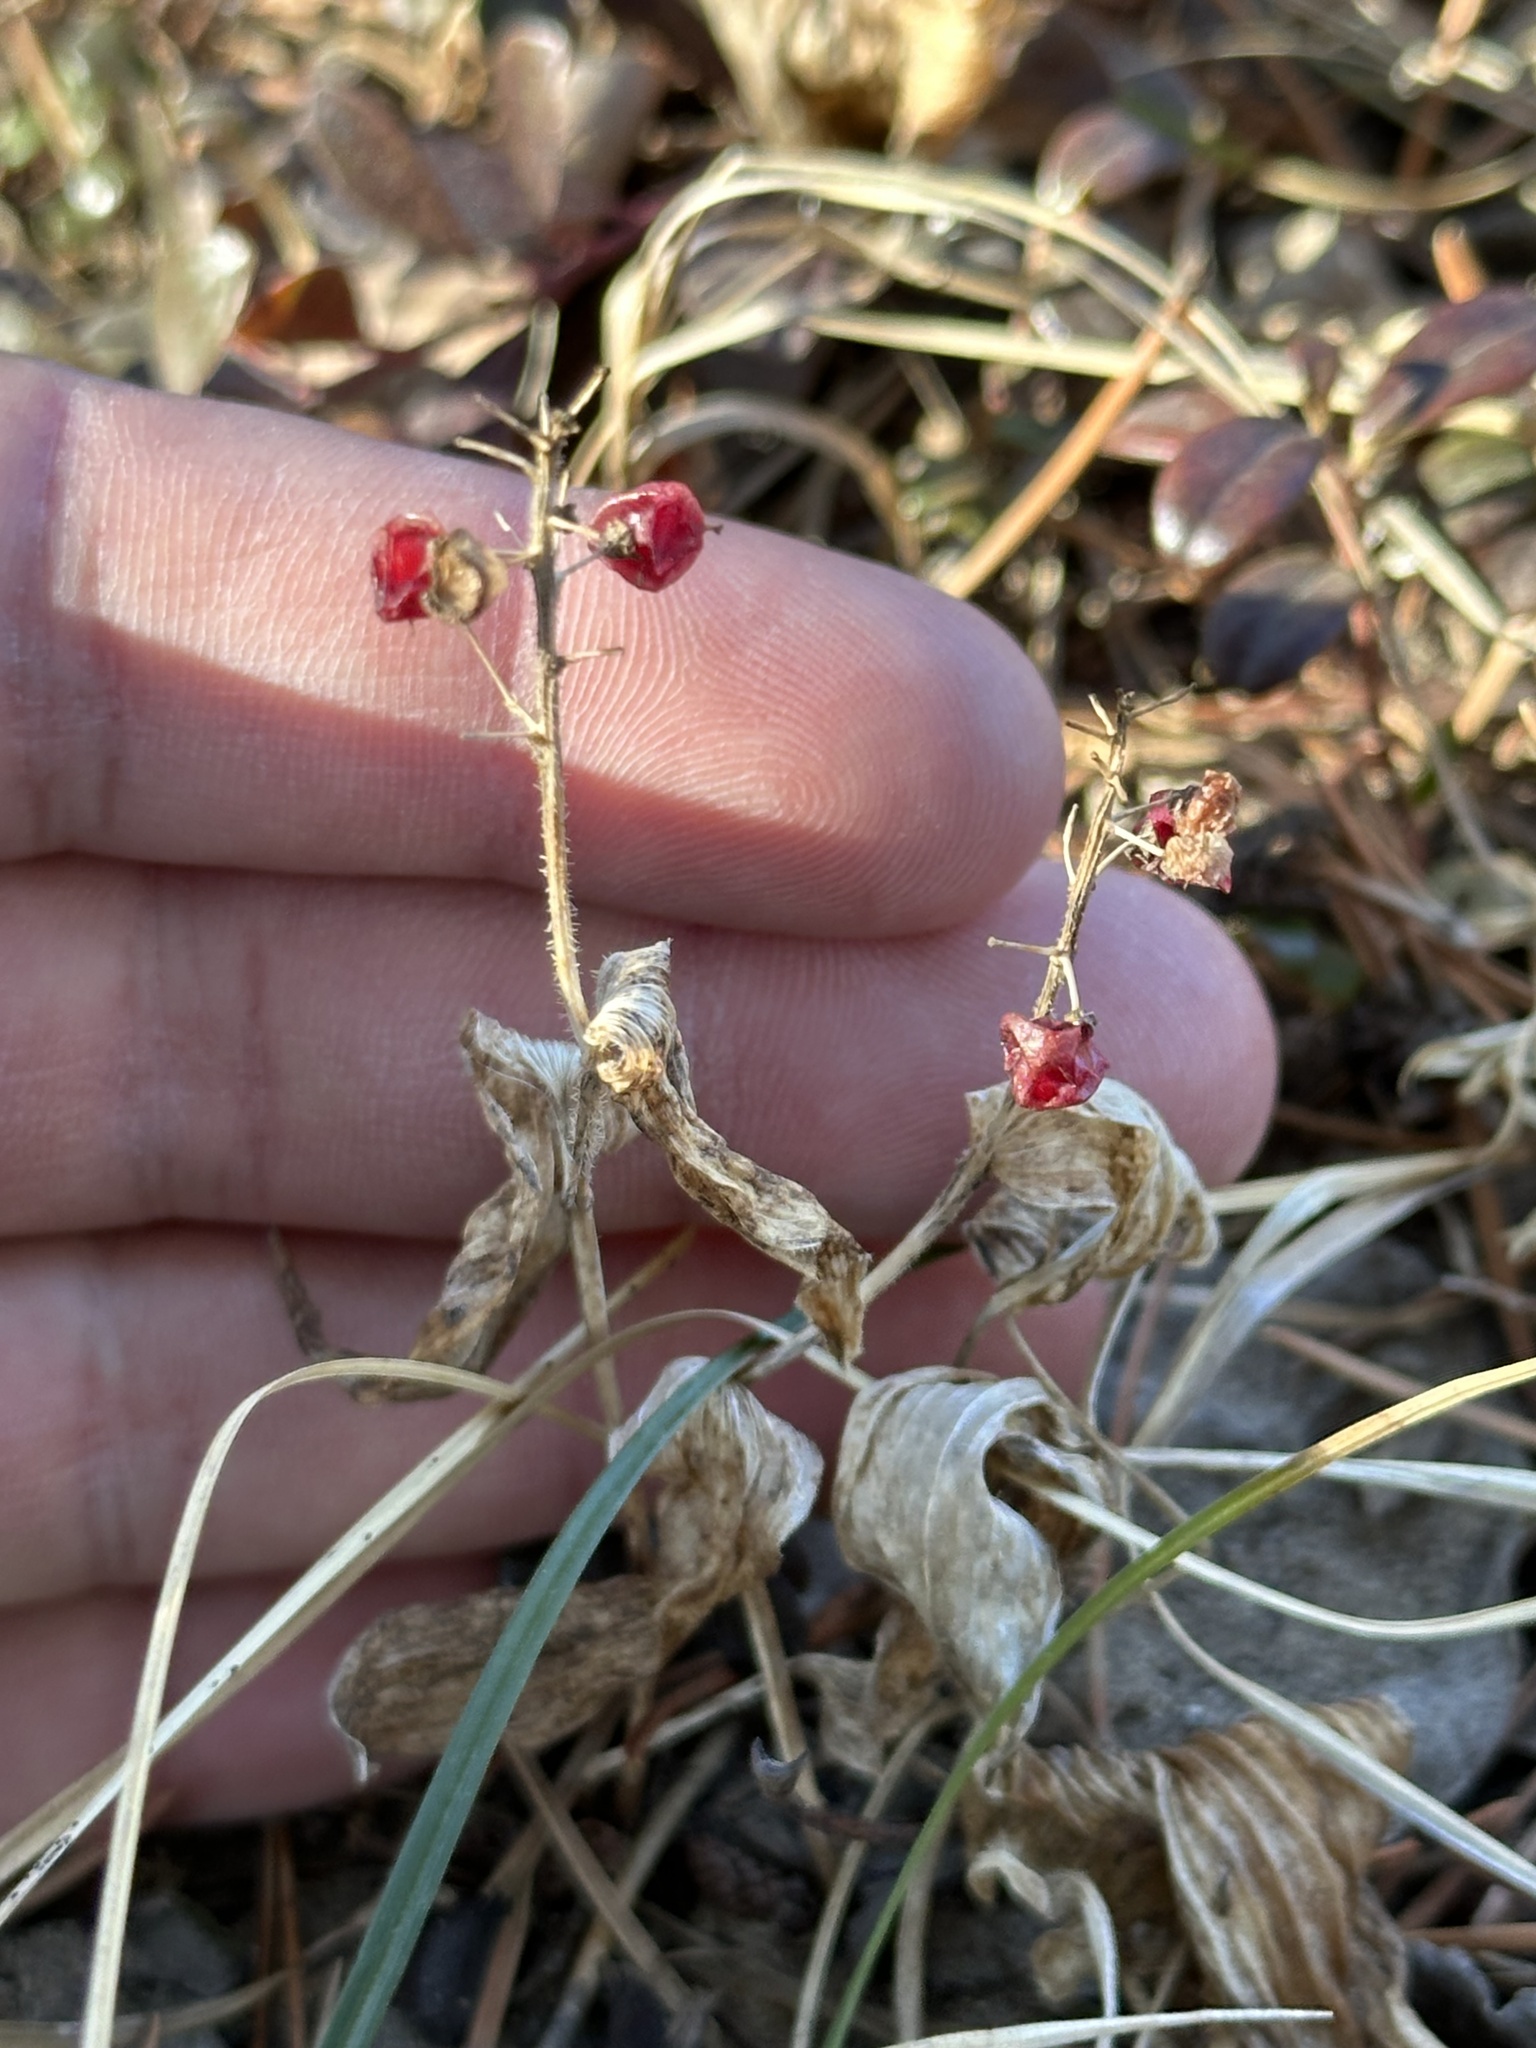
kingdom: Plantae
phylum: Tracheophyta
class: Liliopsida
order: Asparagales
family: Asparagaceae
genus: Maianthemum
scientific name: Maianthemum canadense
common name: False lily-of-the-valley
